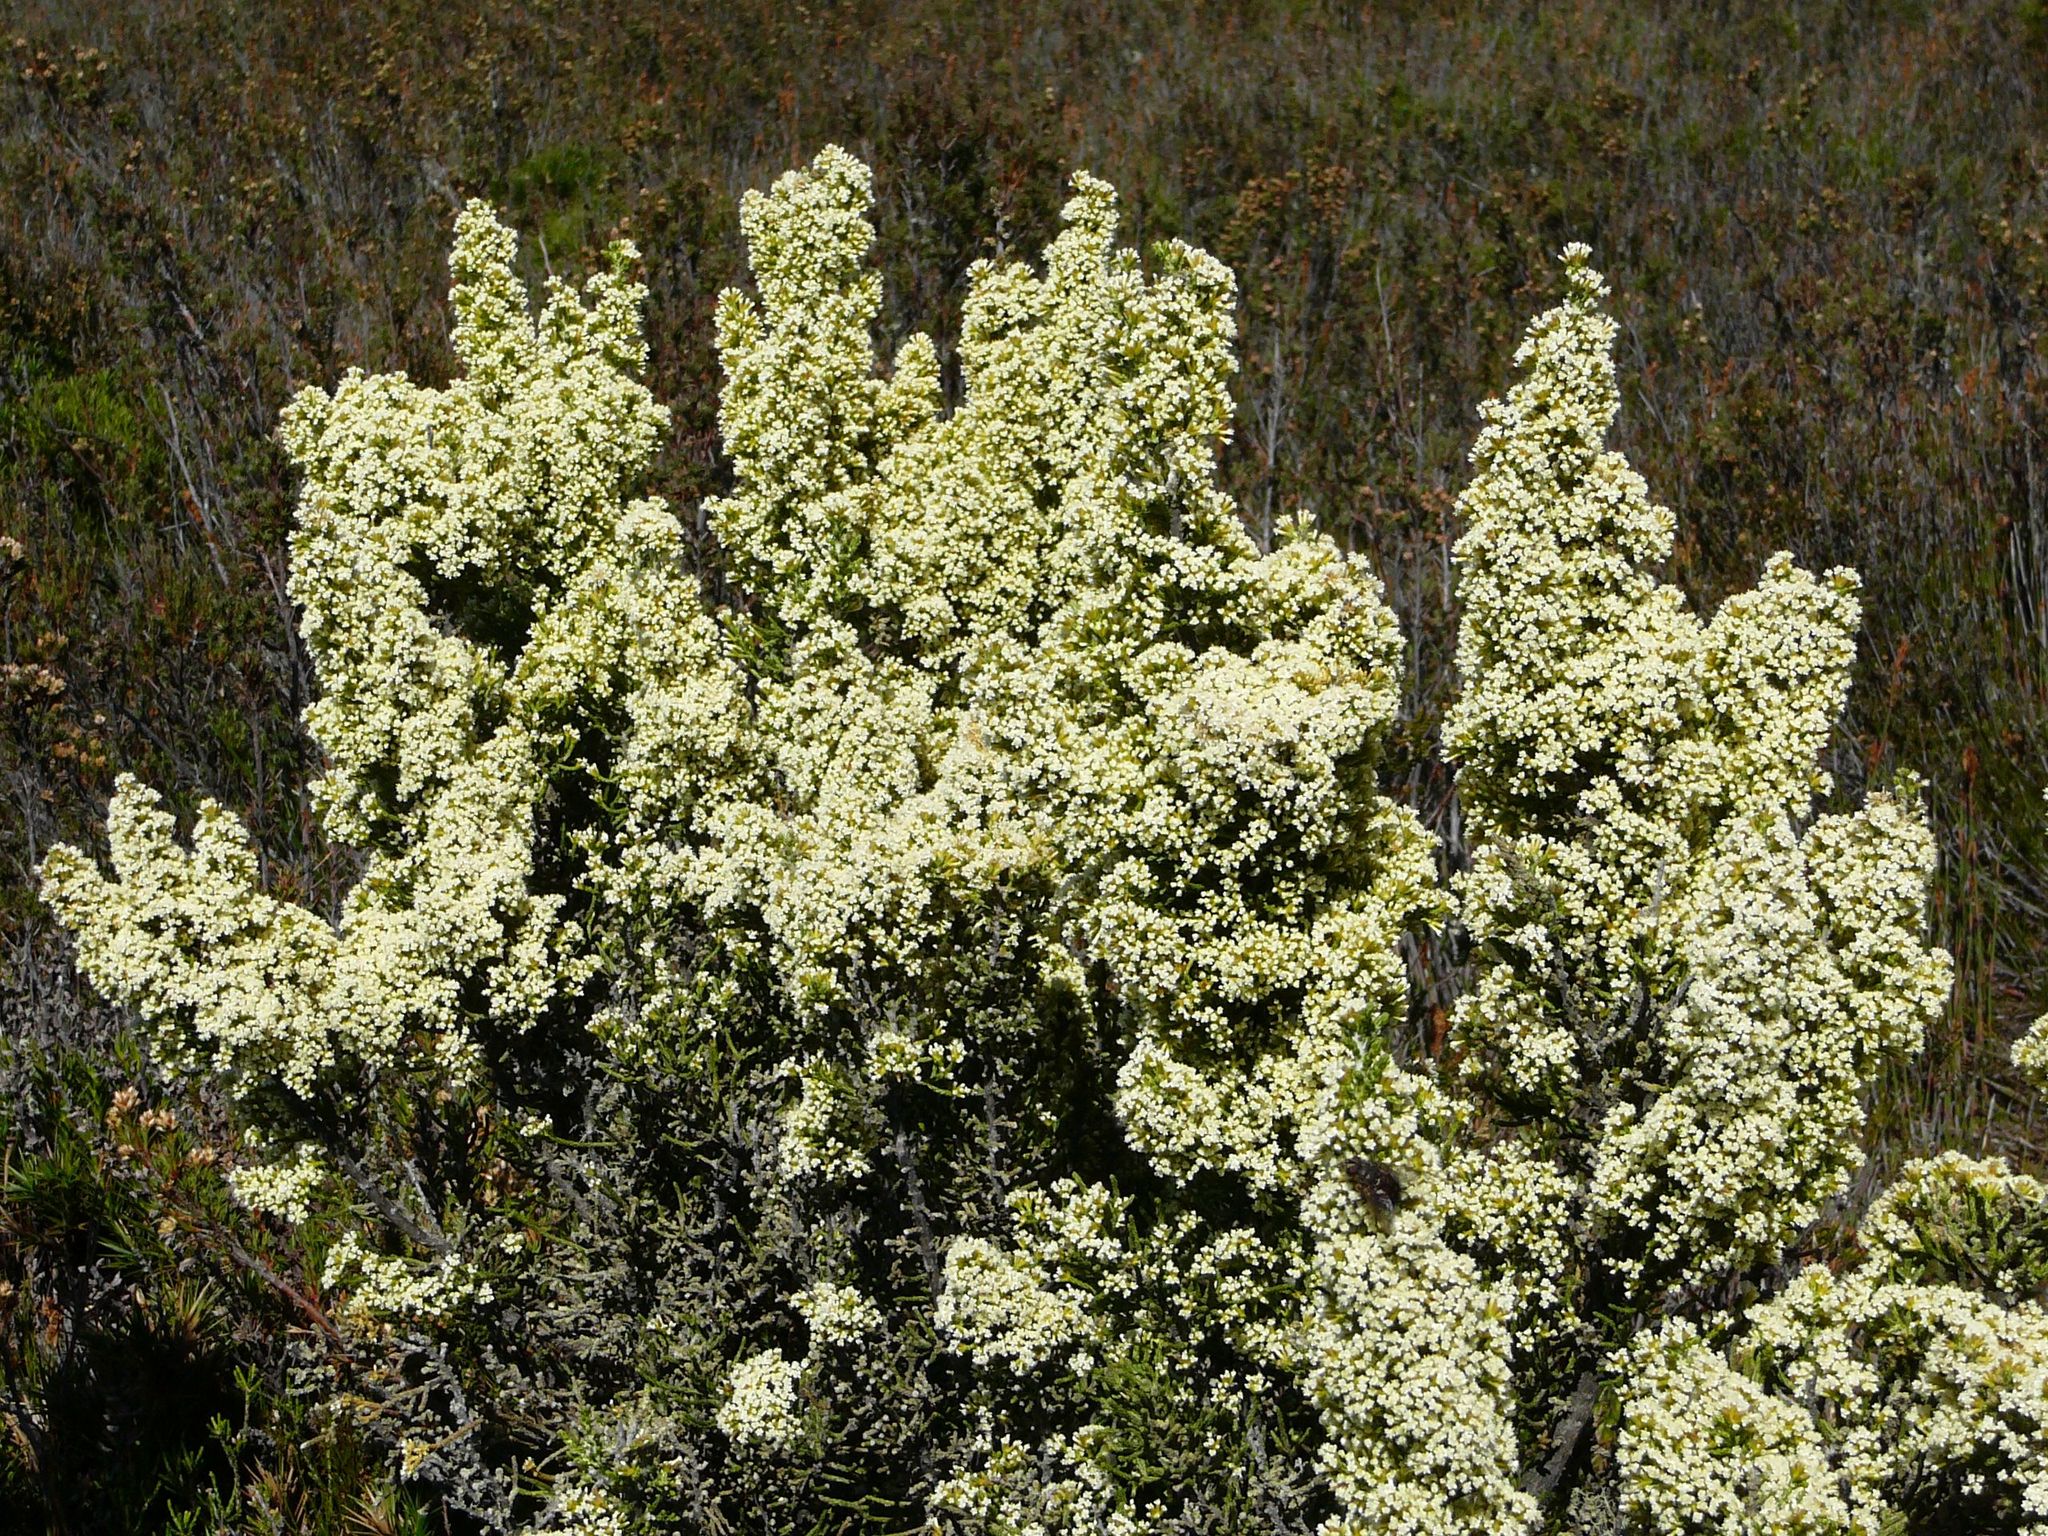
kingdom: Plantae
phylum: Tracheophyta
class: Magnoliopsida
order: Asterales
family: Asteraceae
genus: Ozothamnus
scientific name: Ozothamnus hookeri
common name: Kerosene-bush
